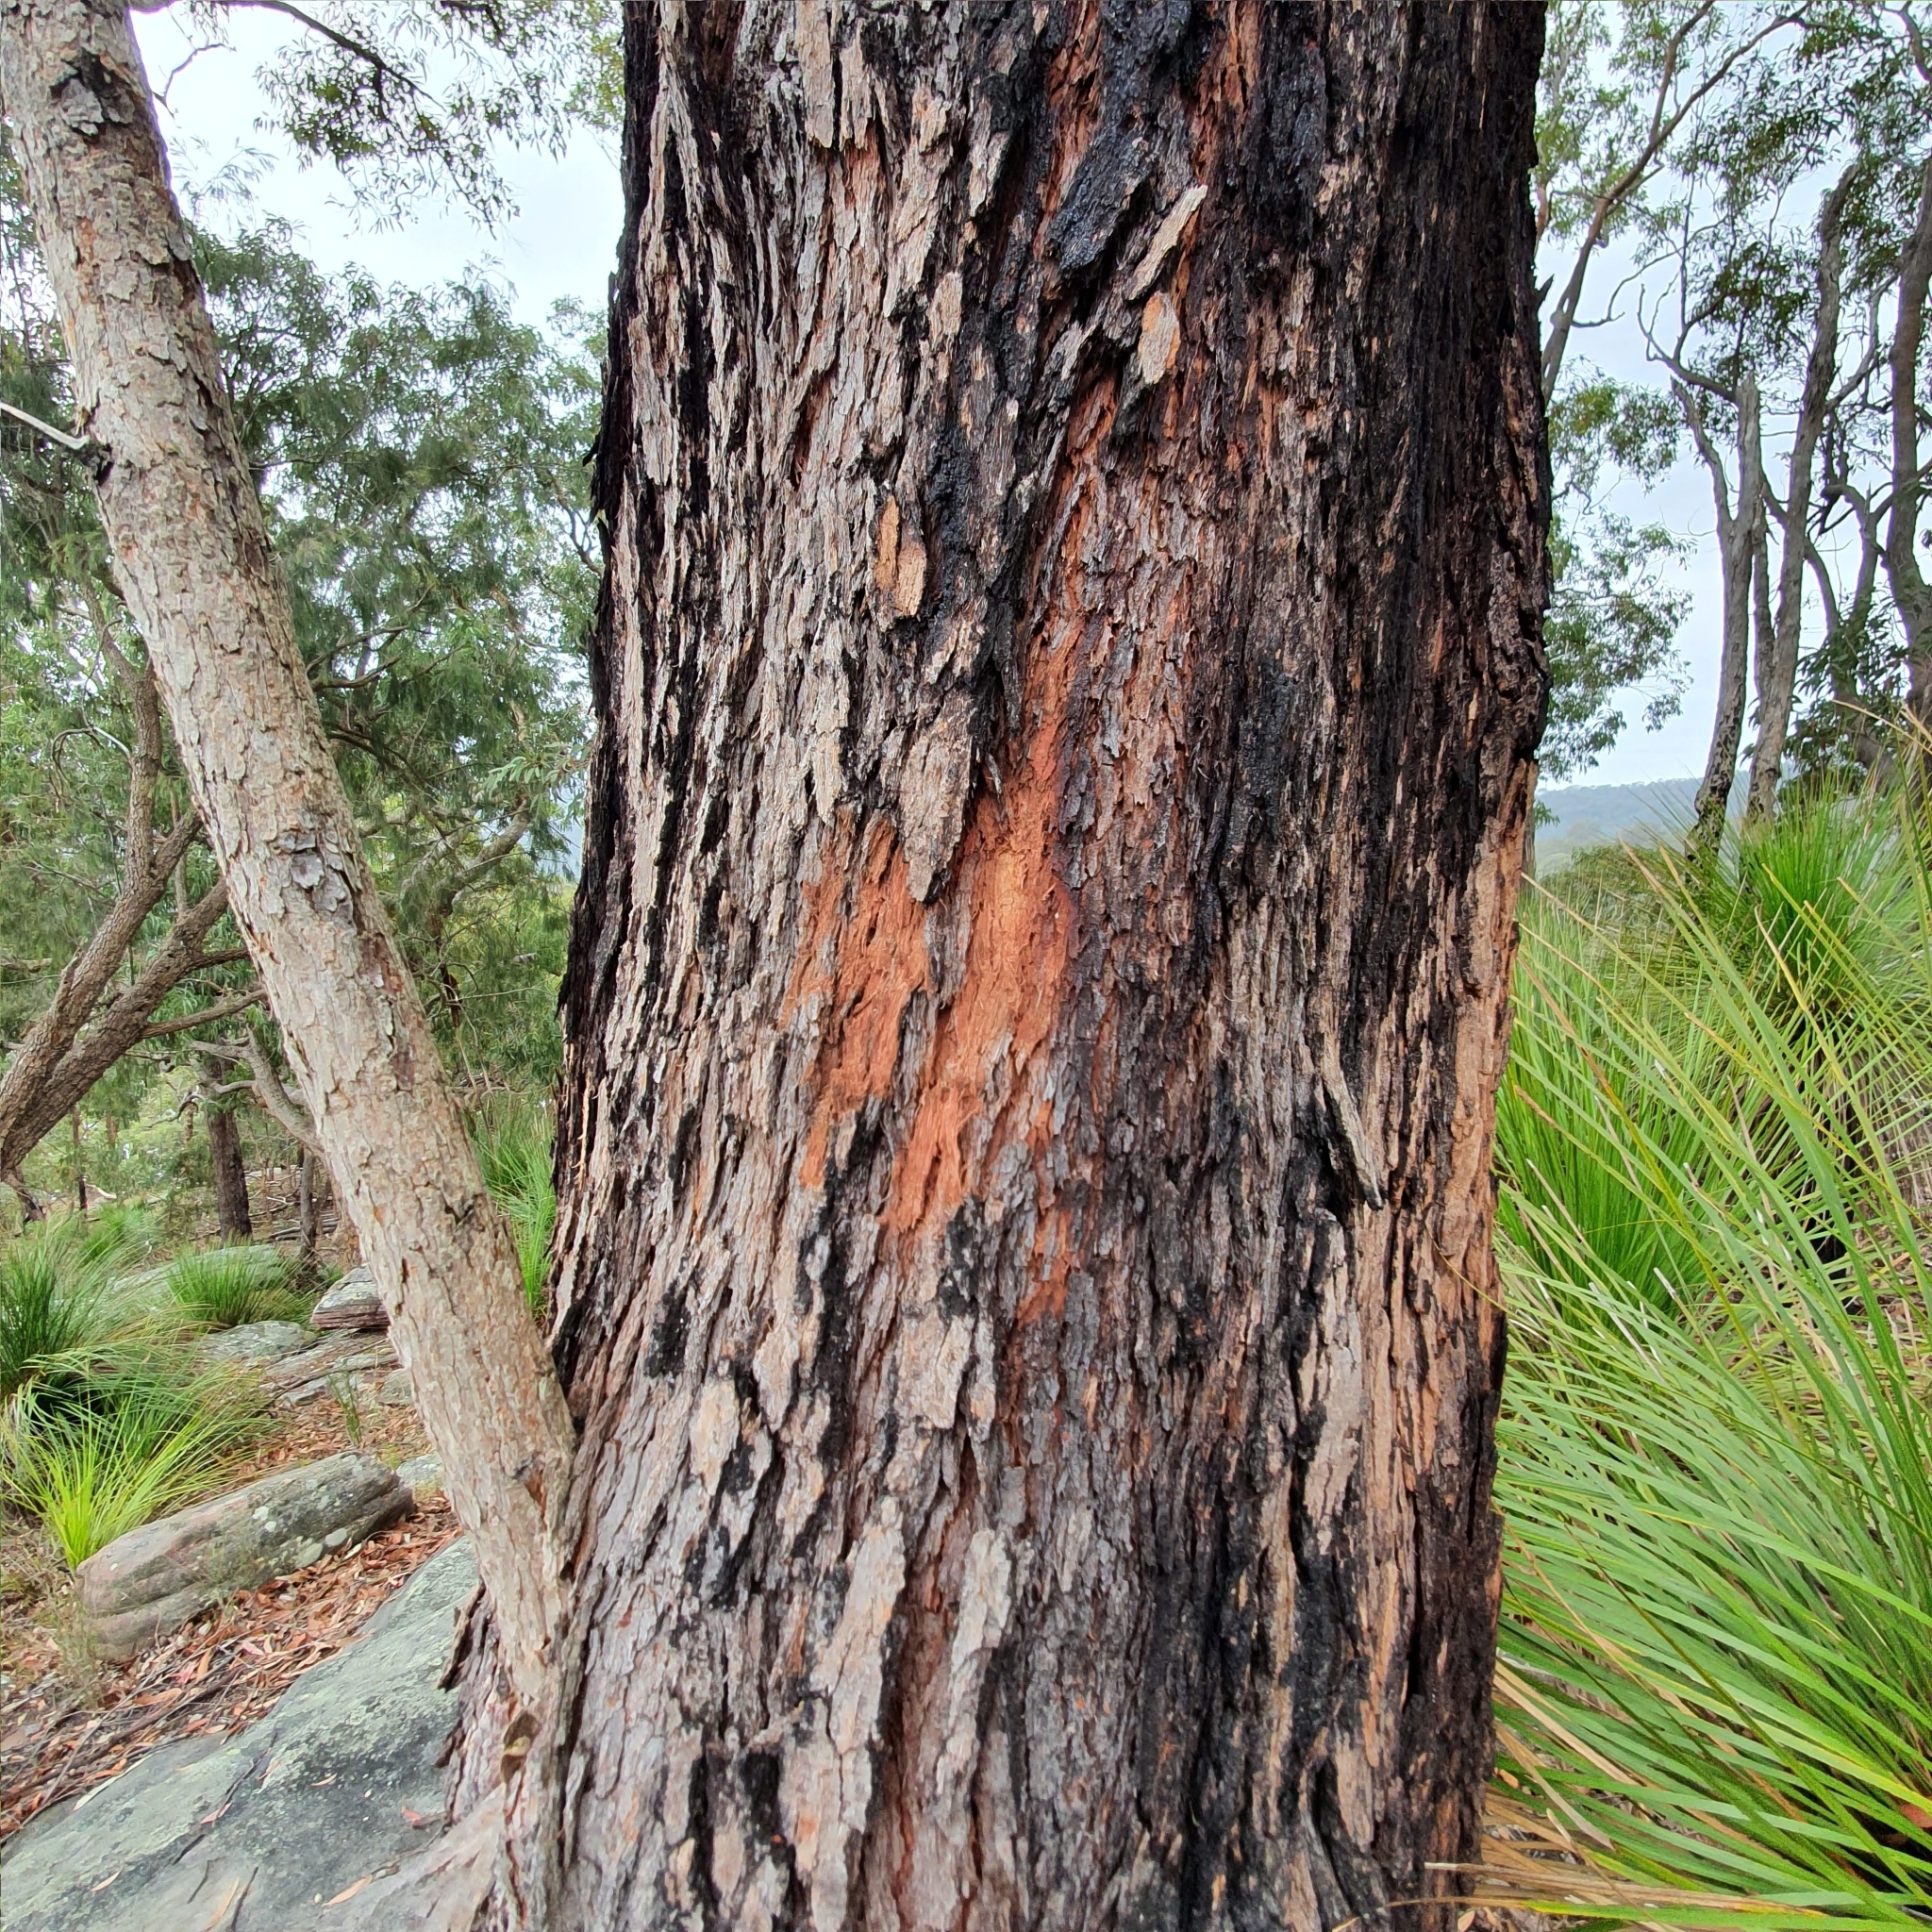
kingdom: Plantae
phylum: Tracheophyta
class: Magnoliopsida
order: Myrtales
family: Myrtaceae
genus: Corymbia
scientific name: Corymbia gummifera
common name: Red bloodwood
